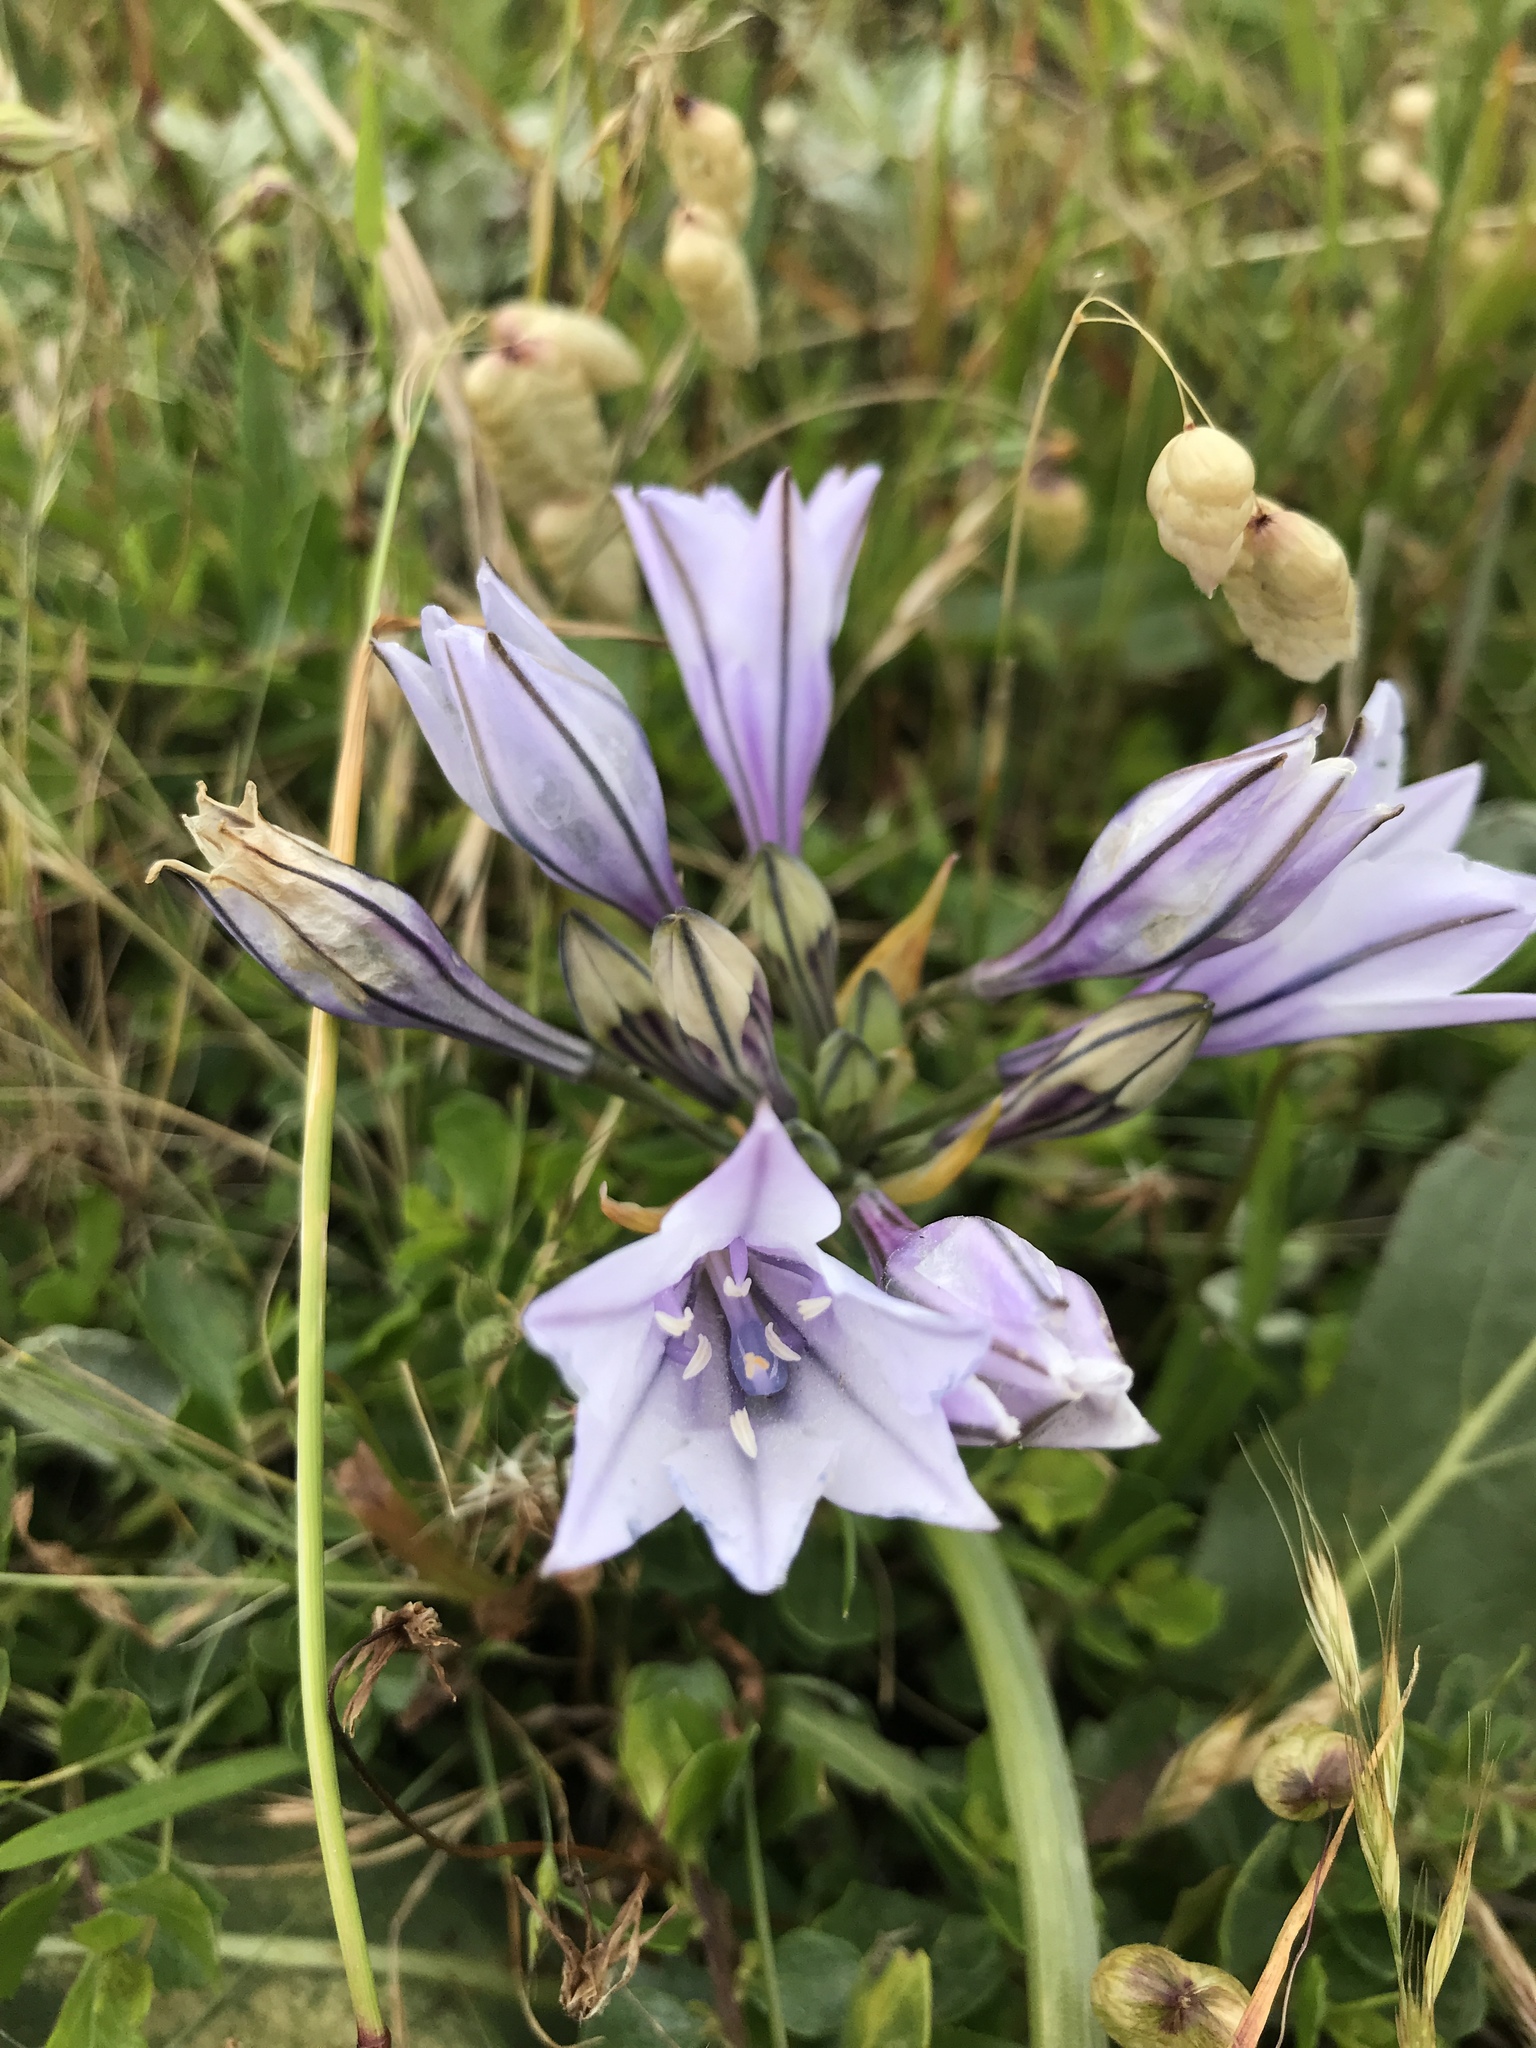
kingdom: Plantae
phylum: Tracheophyta
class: Liliopsida
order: Asparagales
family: Asparagaceae
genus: Triteleia
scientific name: Triteleia laxa
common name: Triplet-lily
